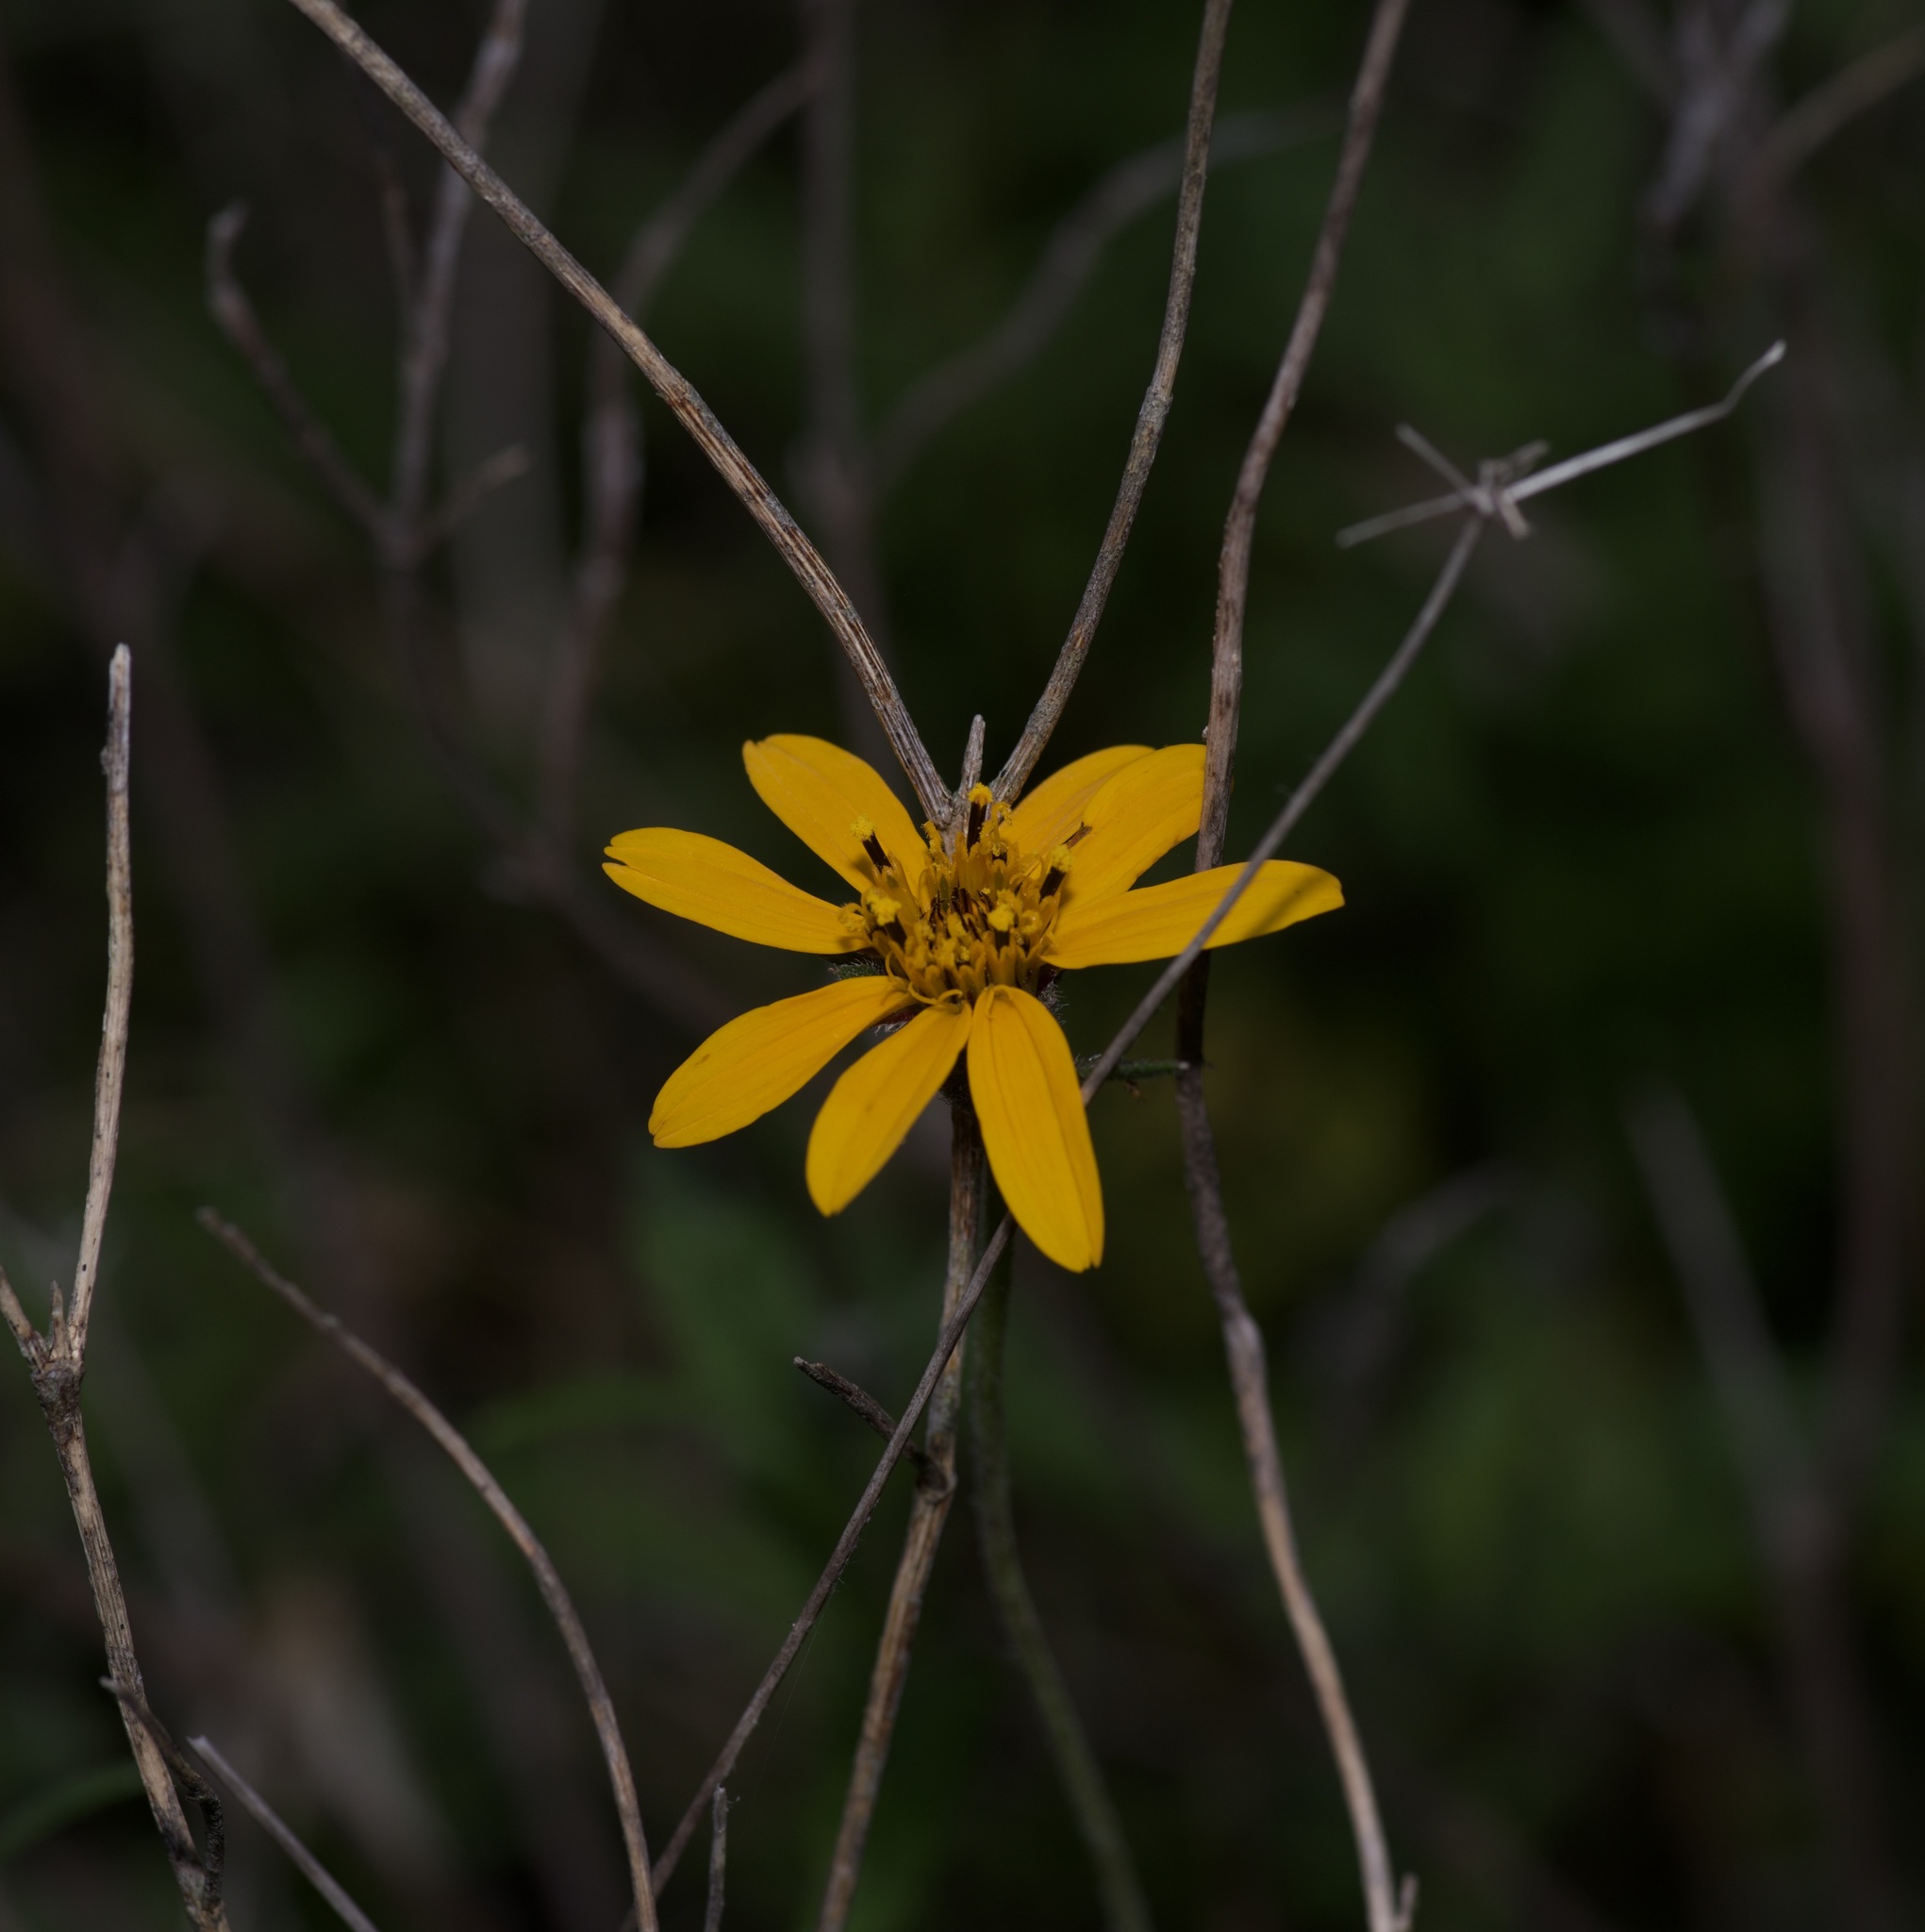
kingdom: Plantae
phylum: Tracheophyta
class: Magnoliopsida
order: Asterales
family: Asteraceae
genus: Wedelia
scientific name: Wedelia acapulcensis
